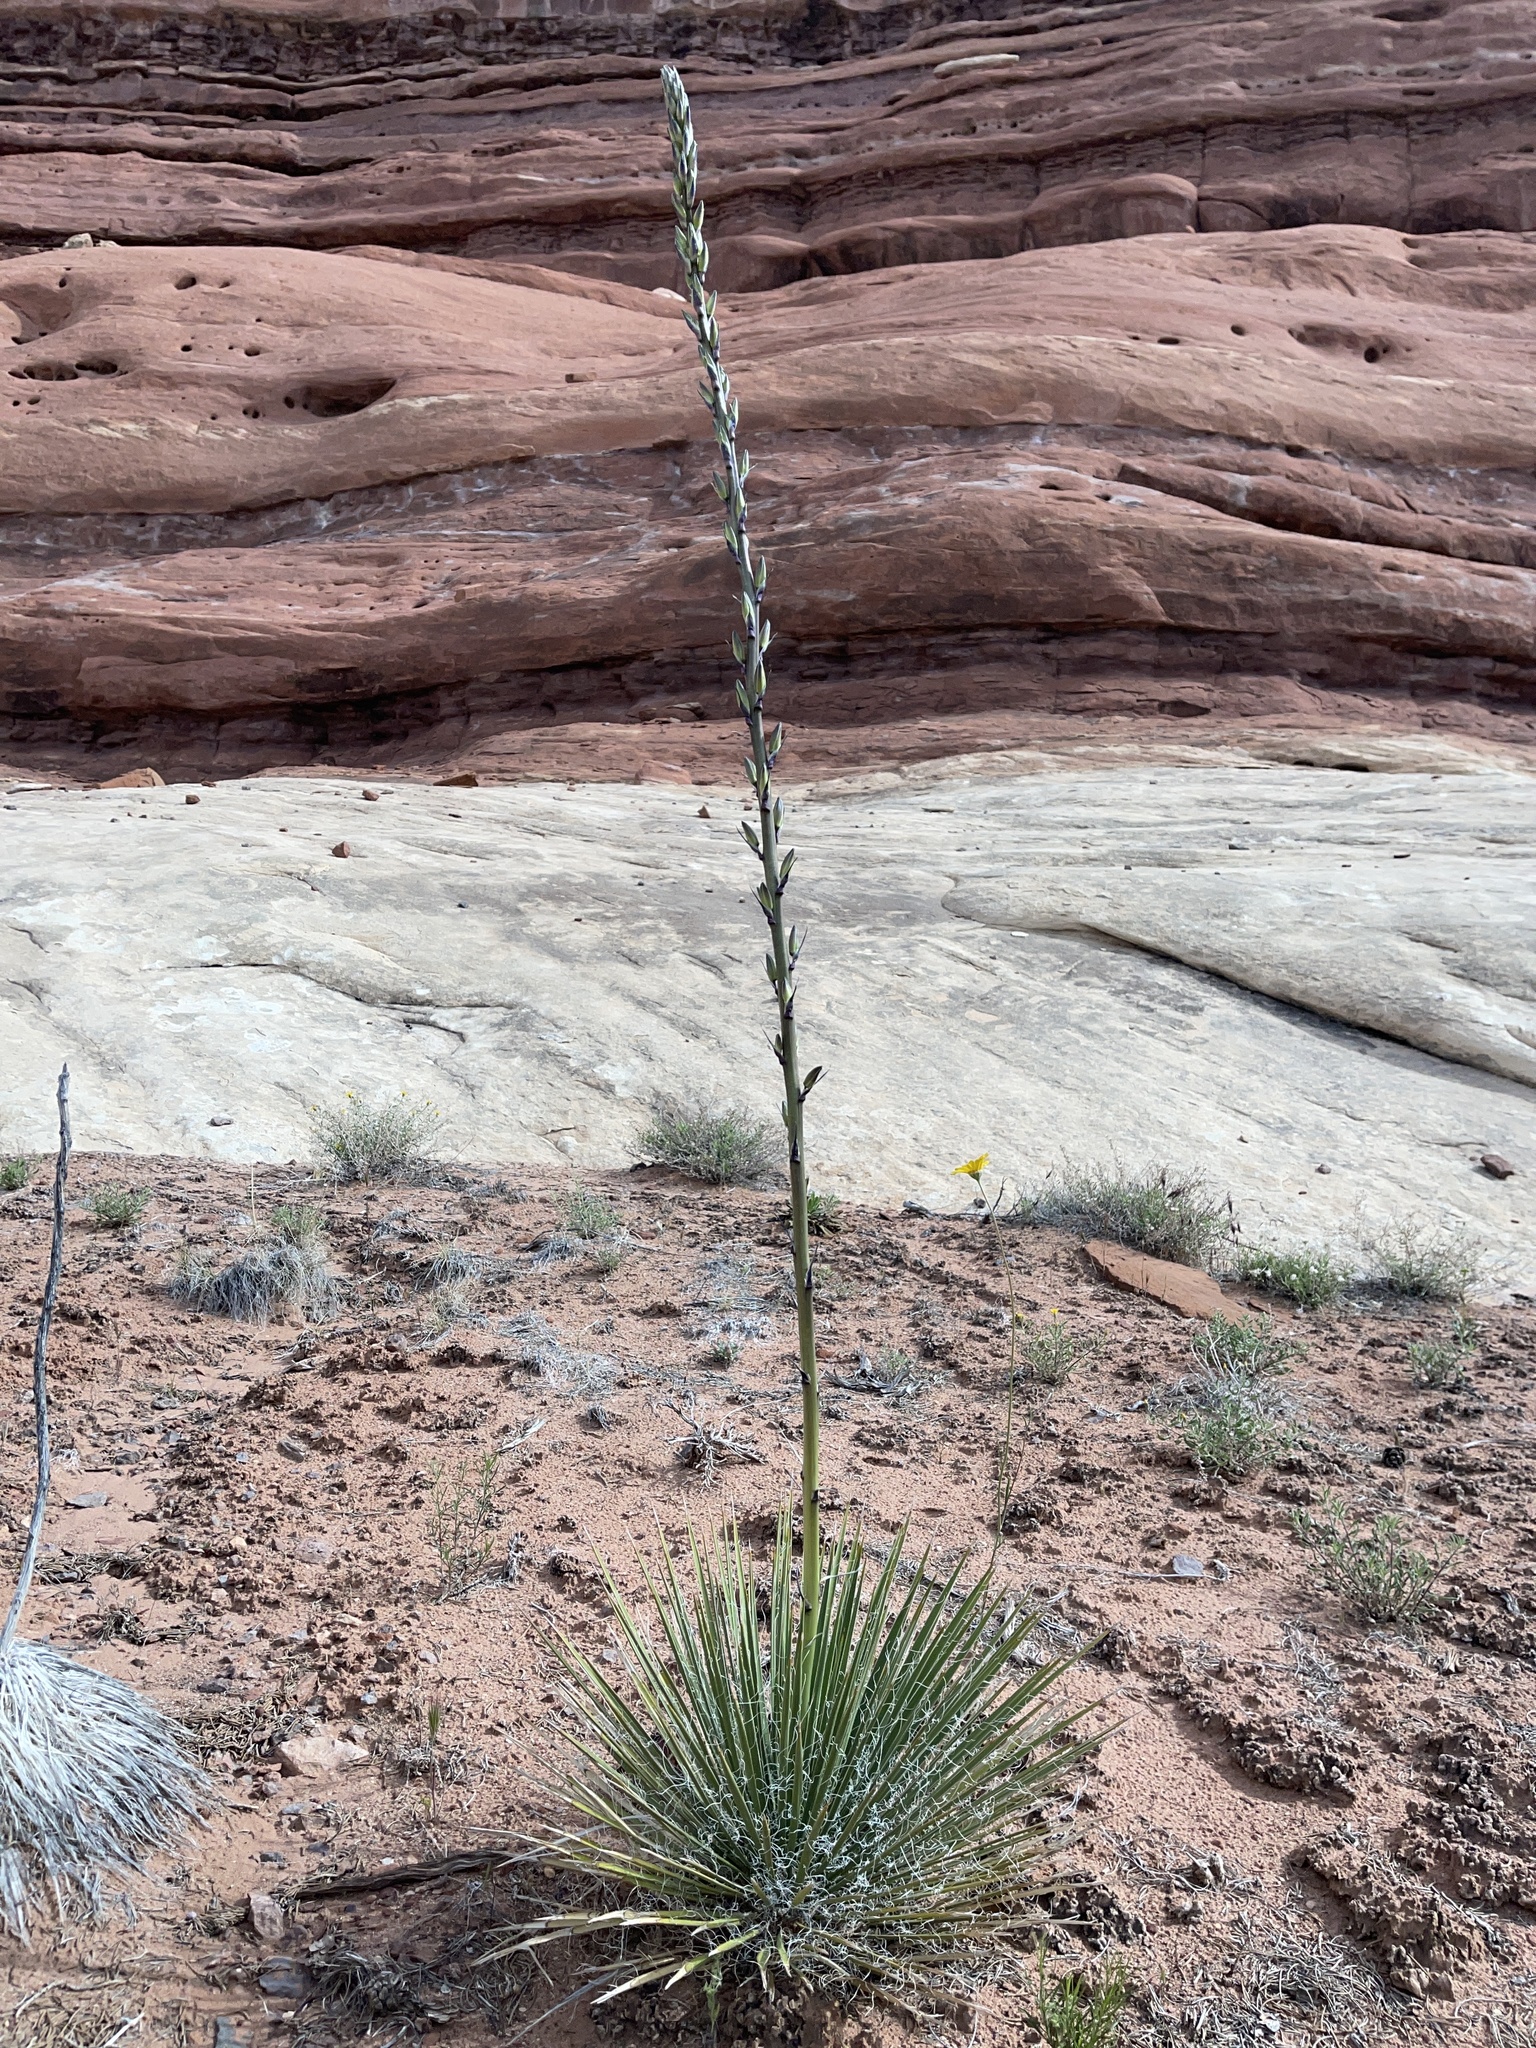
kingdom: Plantae
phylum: Tracheophyta
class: Liliopsida
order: Asparagales
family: Asparagaceae
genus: Yucca
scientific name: Yucca angustissima
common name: Narrowleaf yucca
